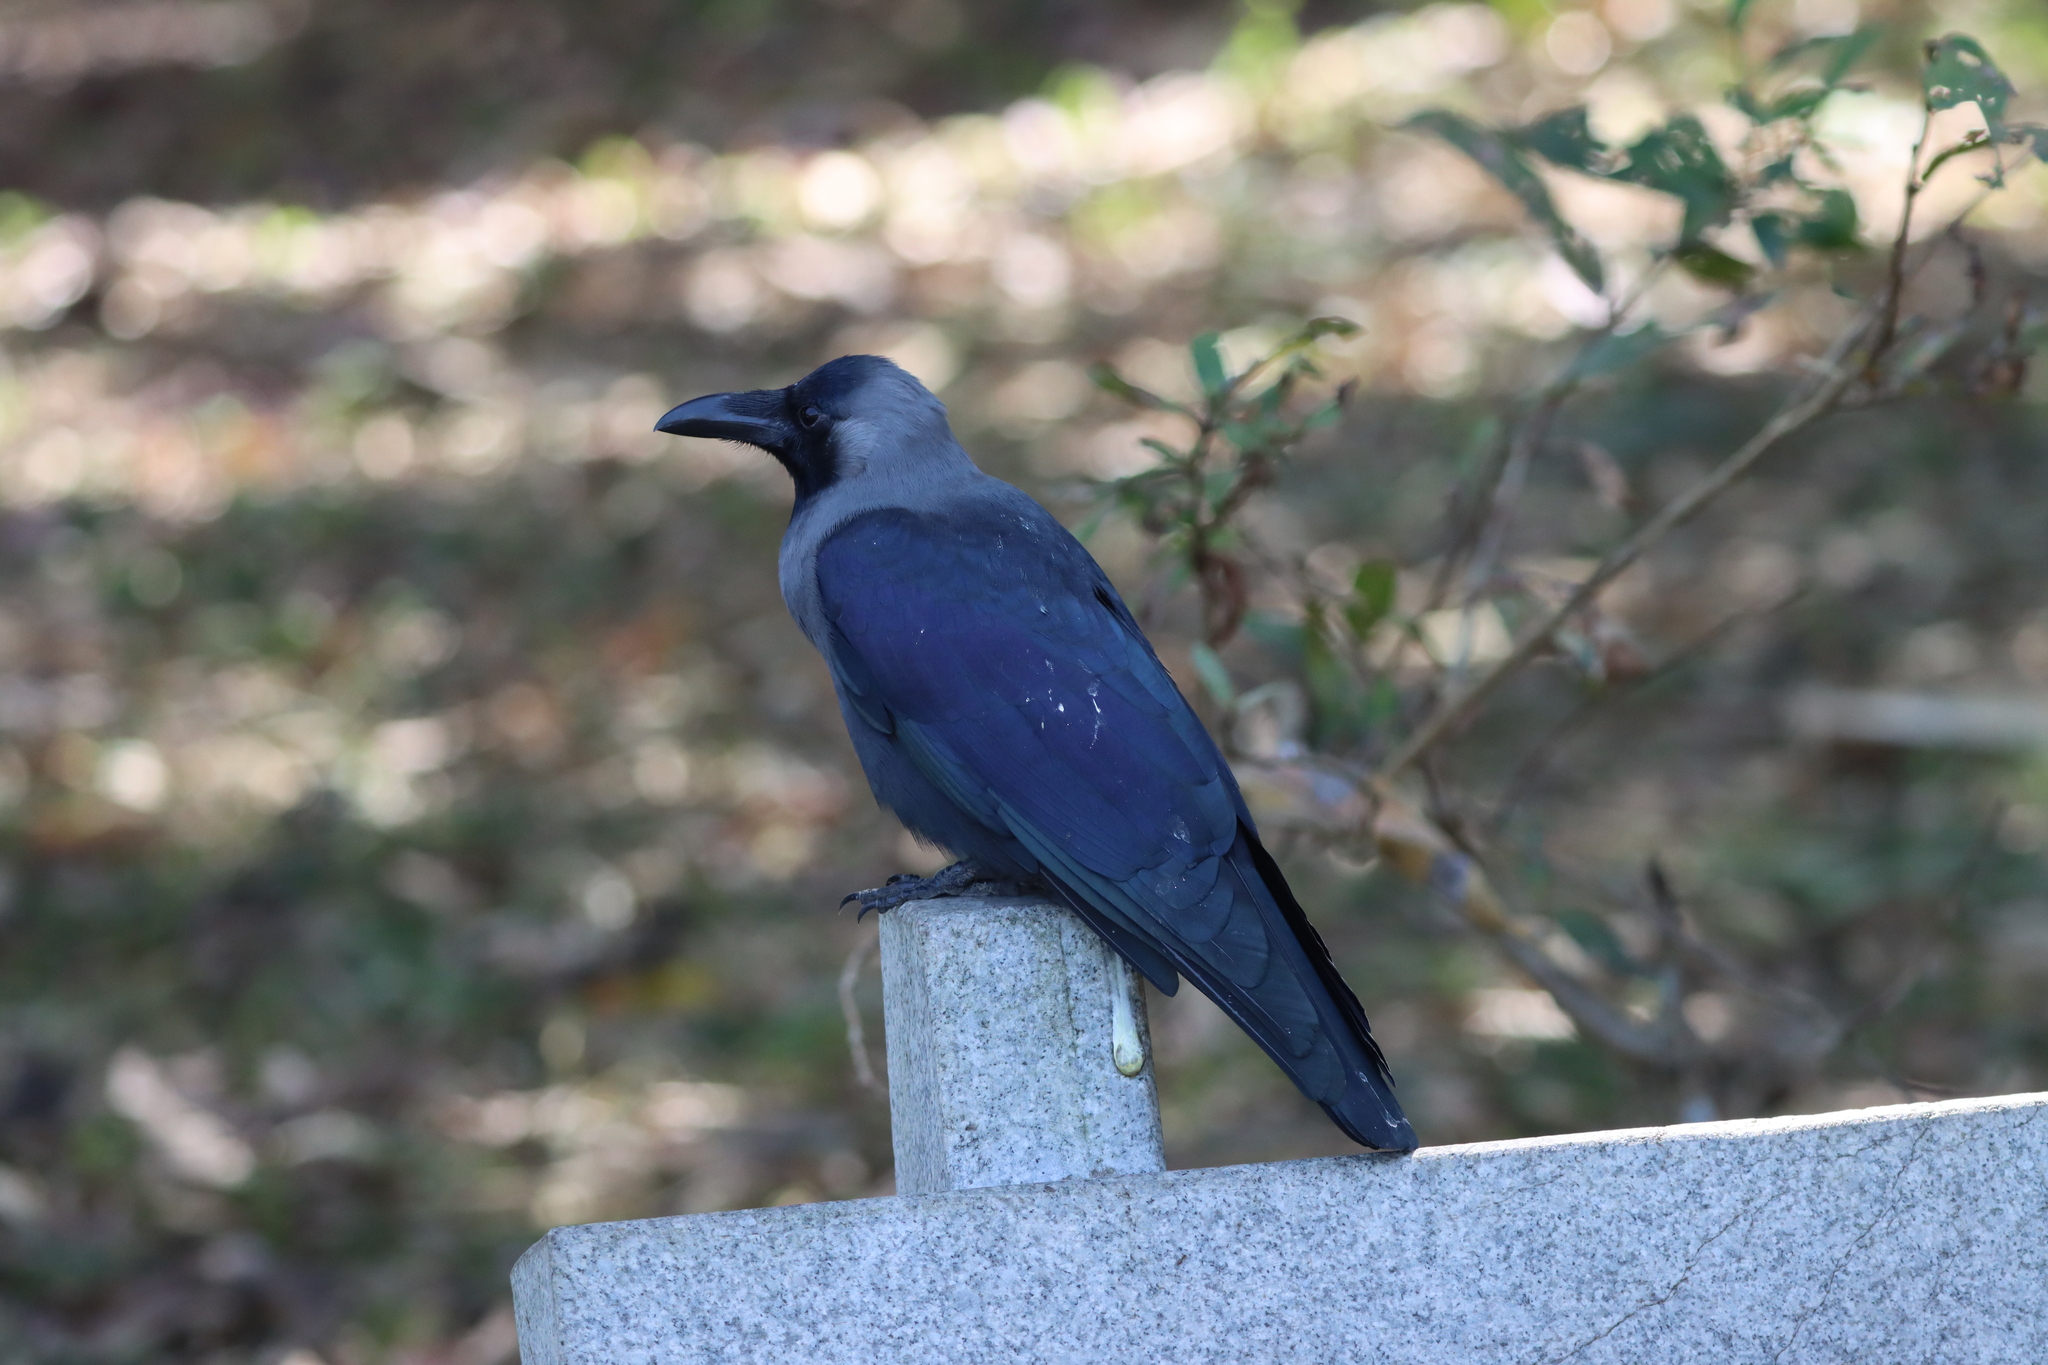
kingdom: Animalia
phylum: Chordata
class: Aves
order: Passeriformes
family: Corvidae
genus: Corvus
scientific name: Corvus splendens
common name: House crow
